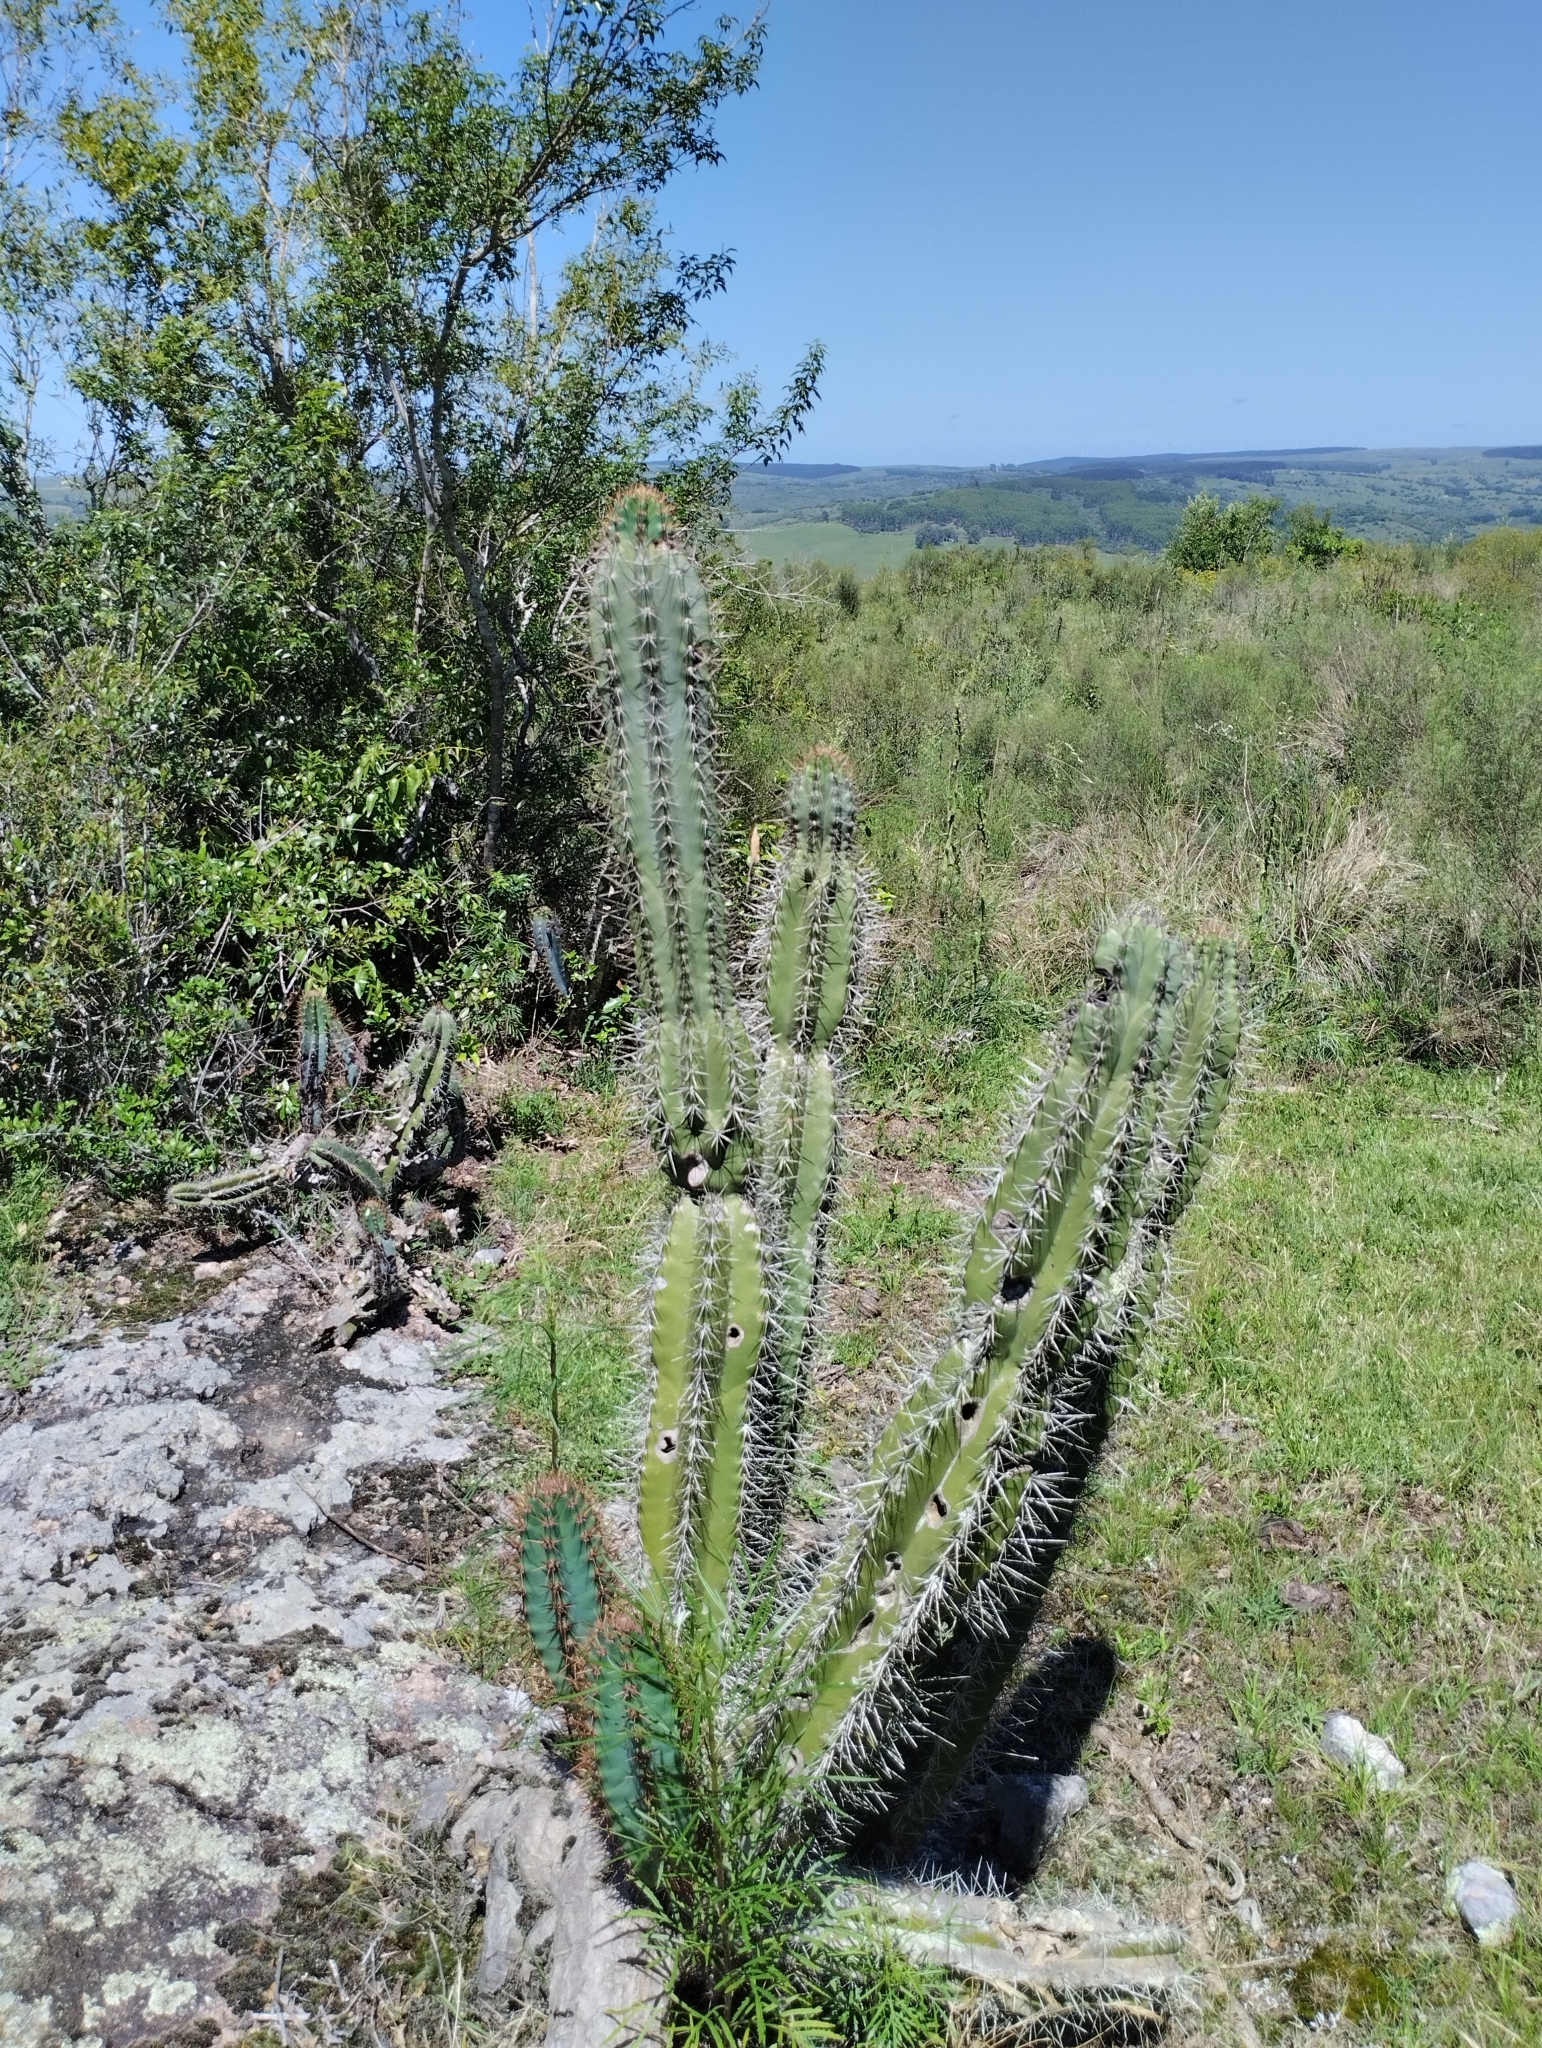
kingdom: Plantae
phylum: Tracheophyta
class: Magnoliopsida
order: Caryophyllales
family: Cactaceae
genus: Cereus
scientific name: Cereus hildmannianus
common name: Hedge cactus
